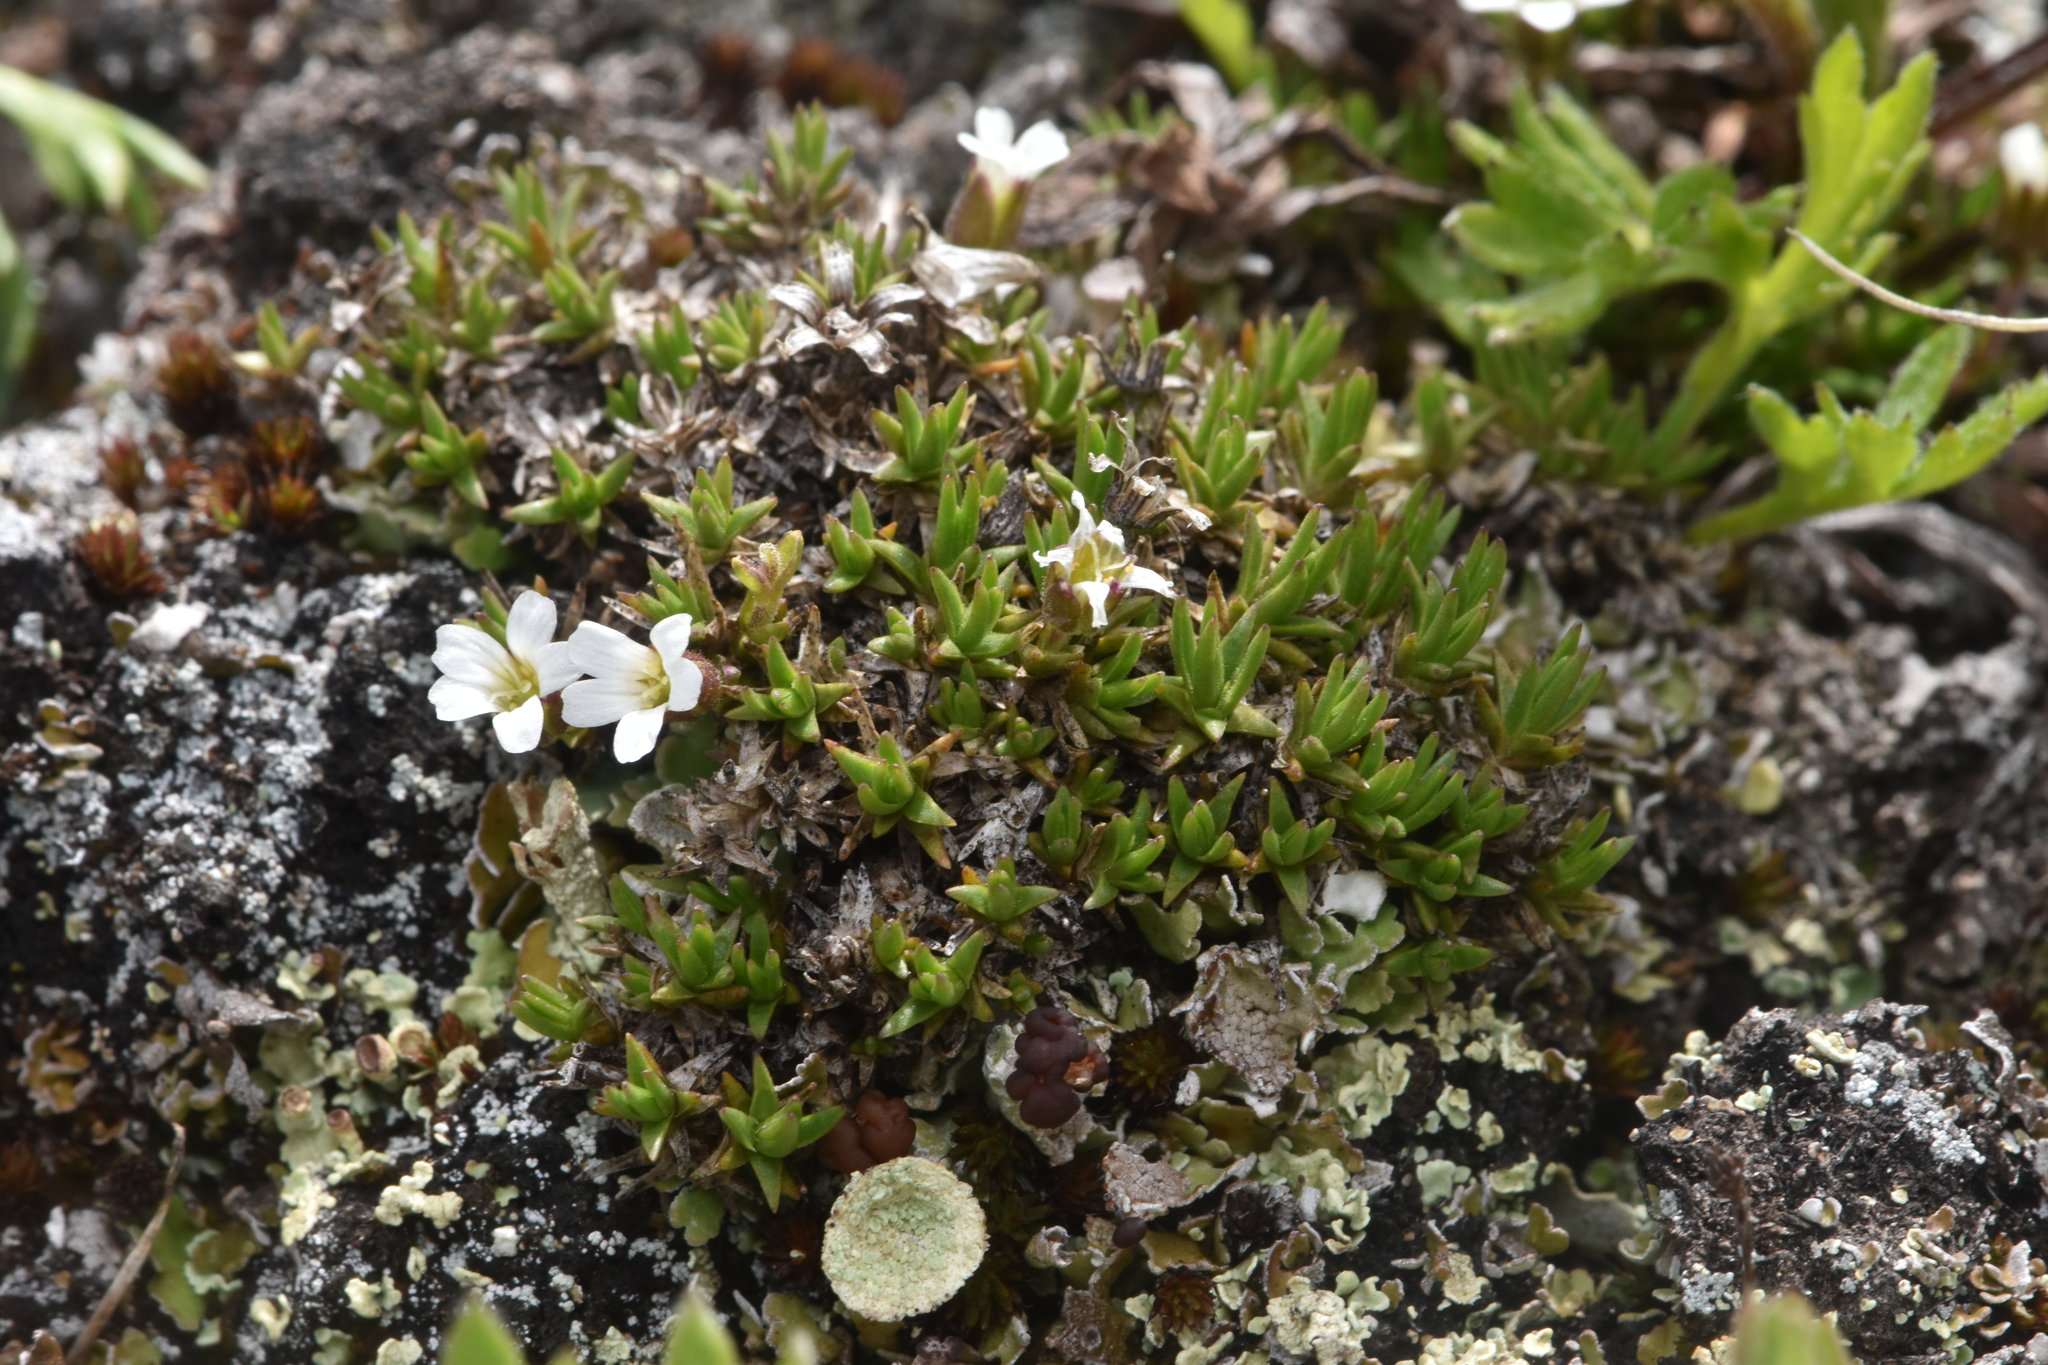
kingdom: Plantae
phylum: Tracheophyta
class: Magnoliopsida
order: Caryophyllales
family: Caryophyllaceae
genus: Cherleria
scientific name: Cherleria biflora
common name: Mountain sandwort
